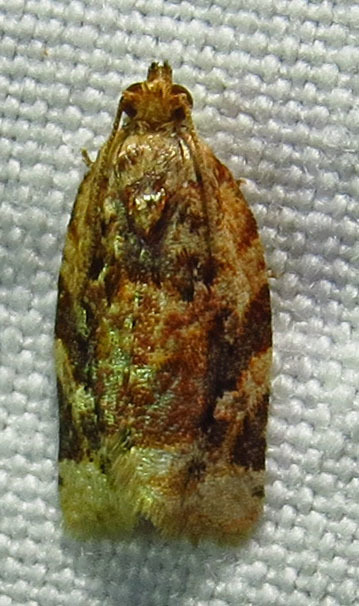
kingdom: Animalia
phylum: Arthropoda
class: Insecta
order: Lepidoptera
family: Tortricidae
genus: Argyrotaenia
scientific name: Argyrotaenia velutinana
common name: Red-banded leafroller moth
